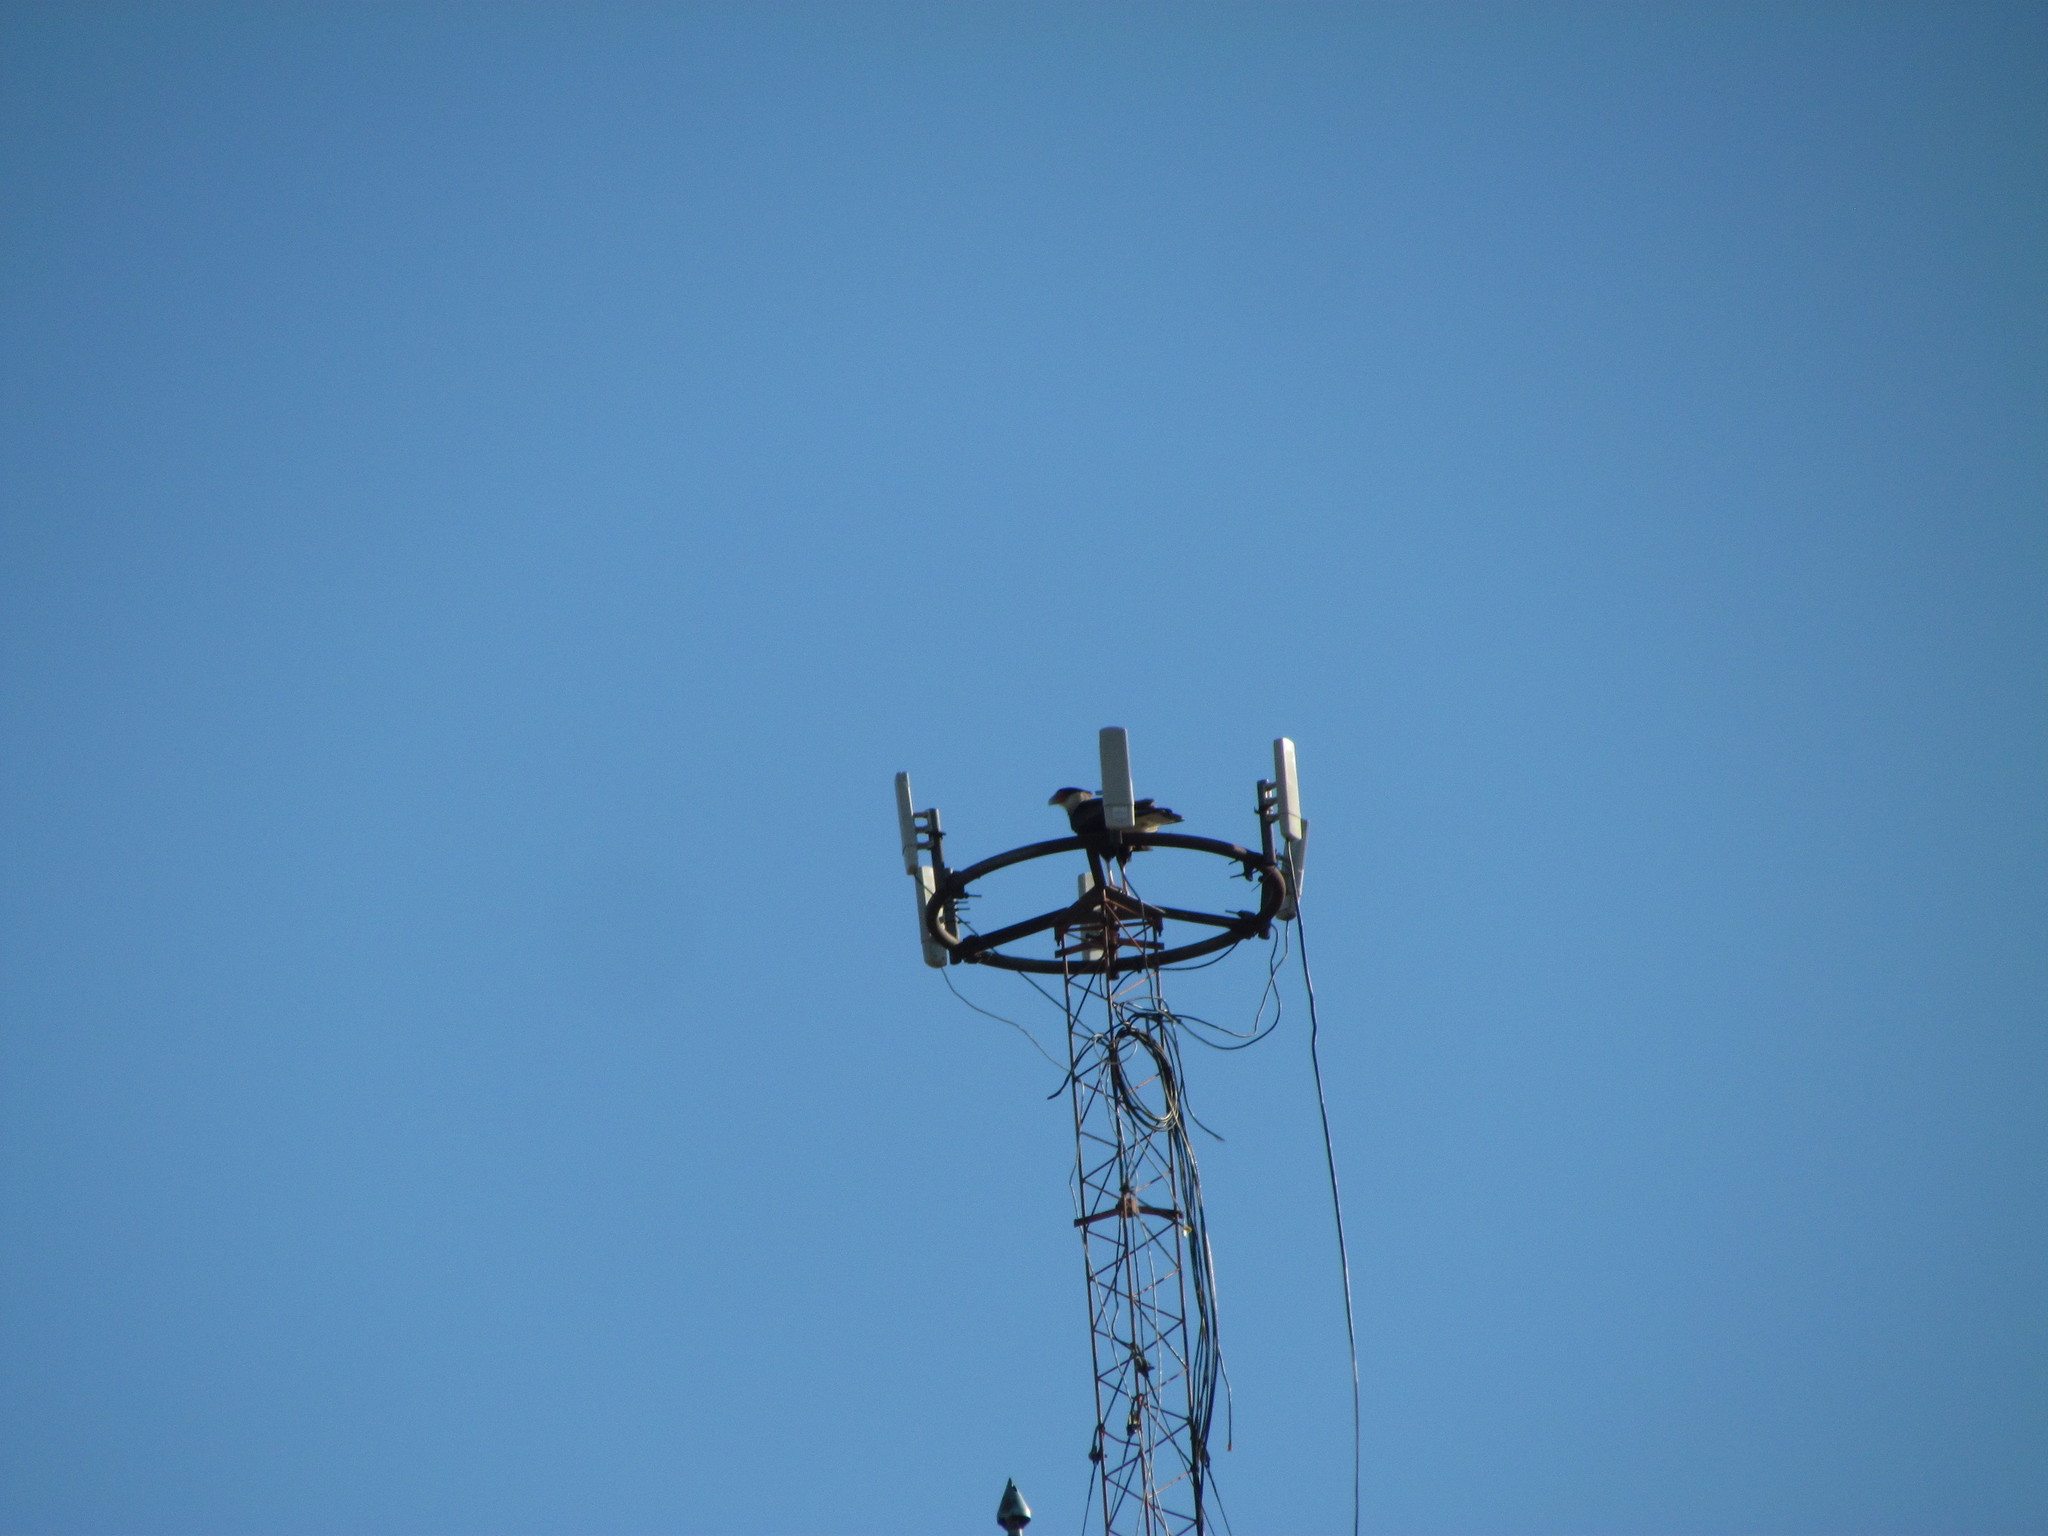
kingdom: Animalia
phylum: Chordata
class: Aves
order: Falconiformes
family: Falconidae
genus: Caracara
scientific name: Caracara plancus
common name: Southern caracara
